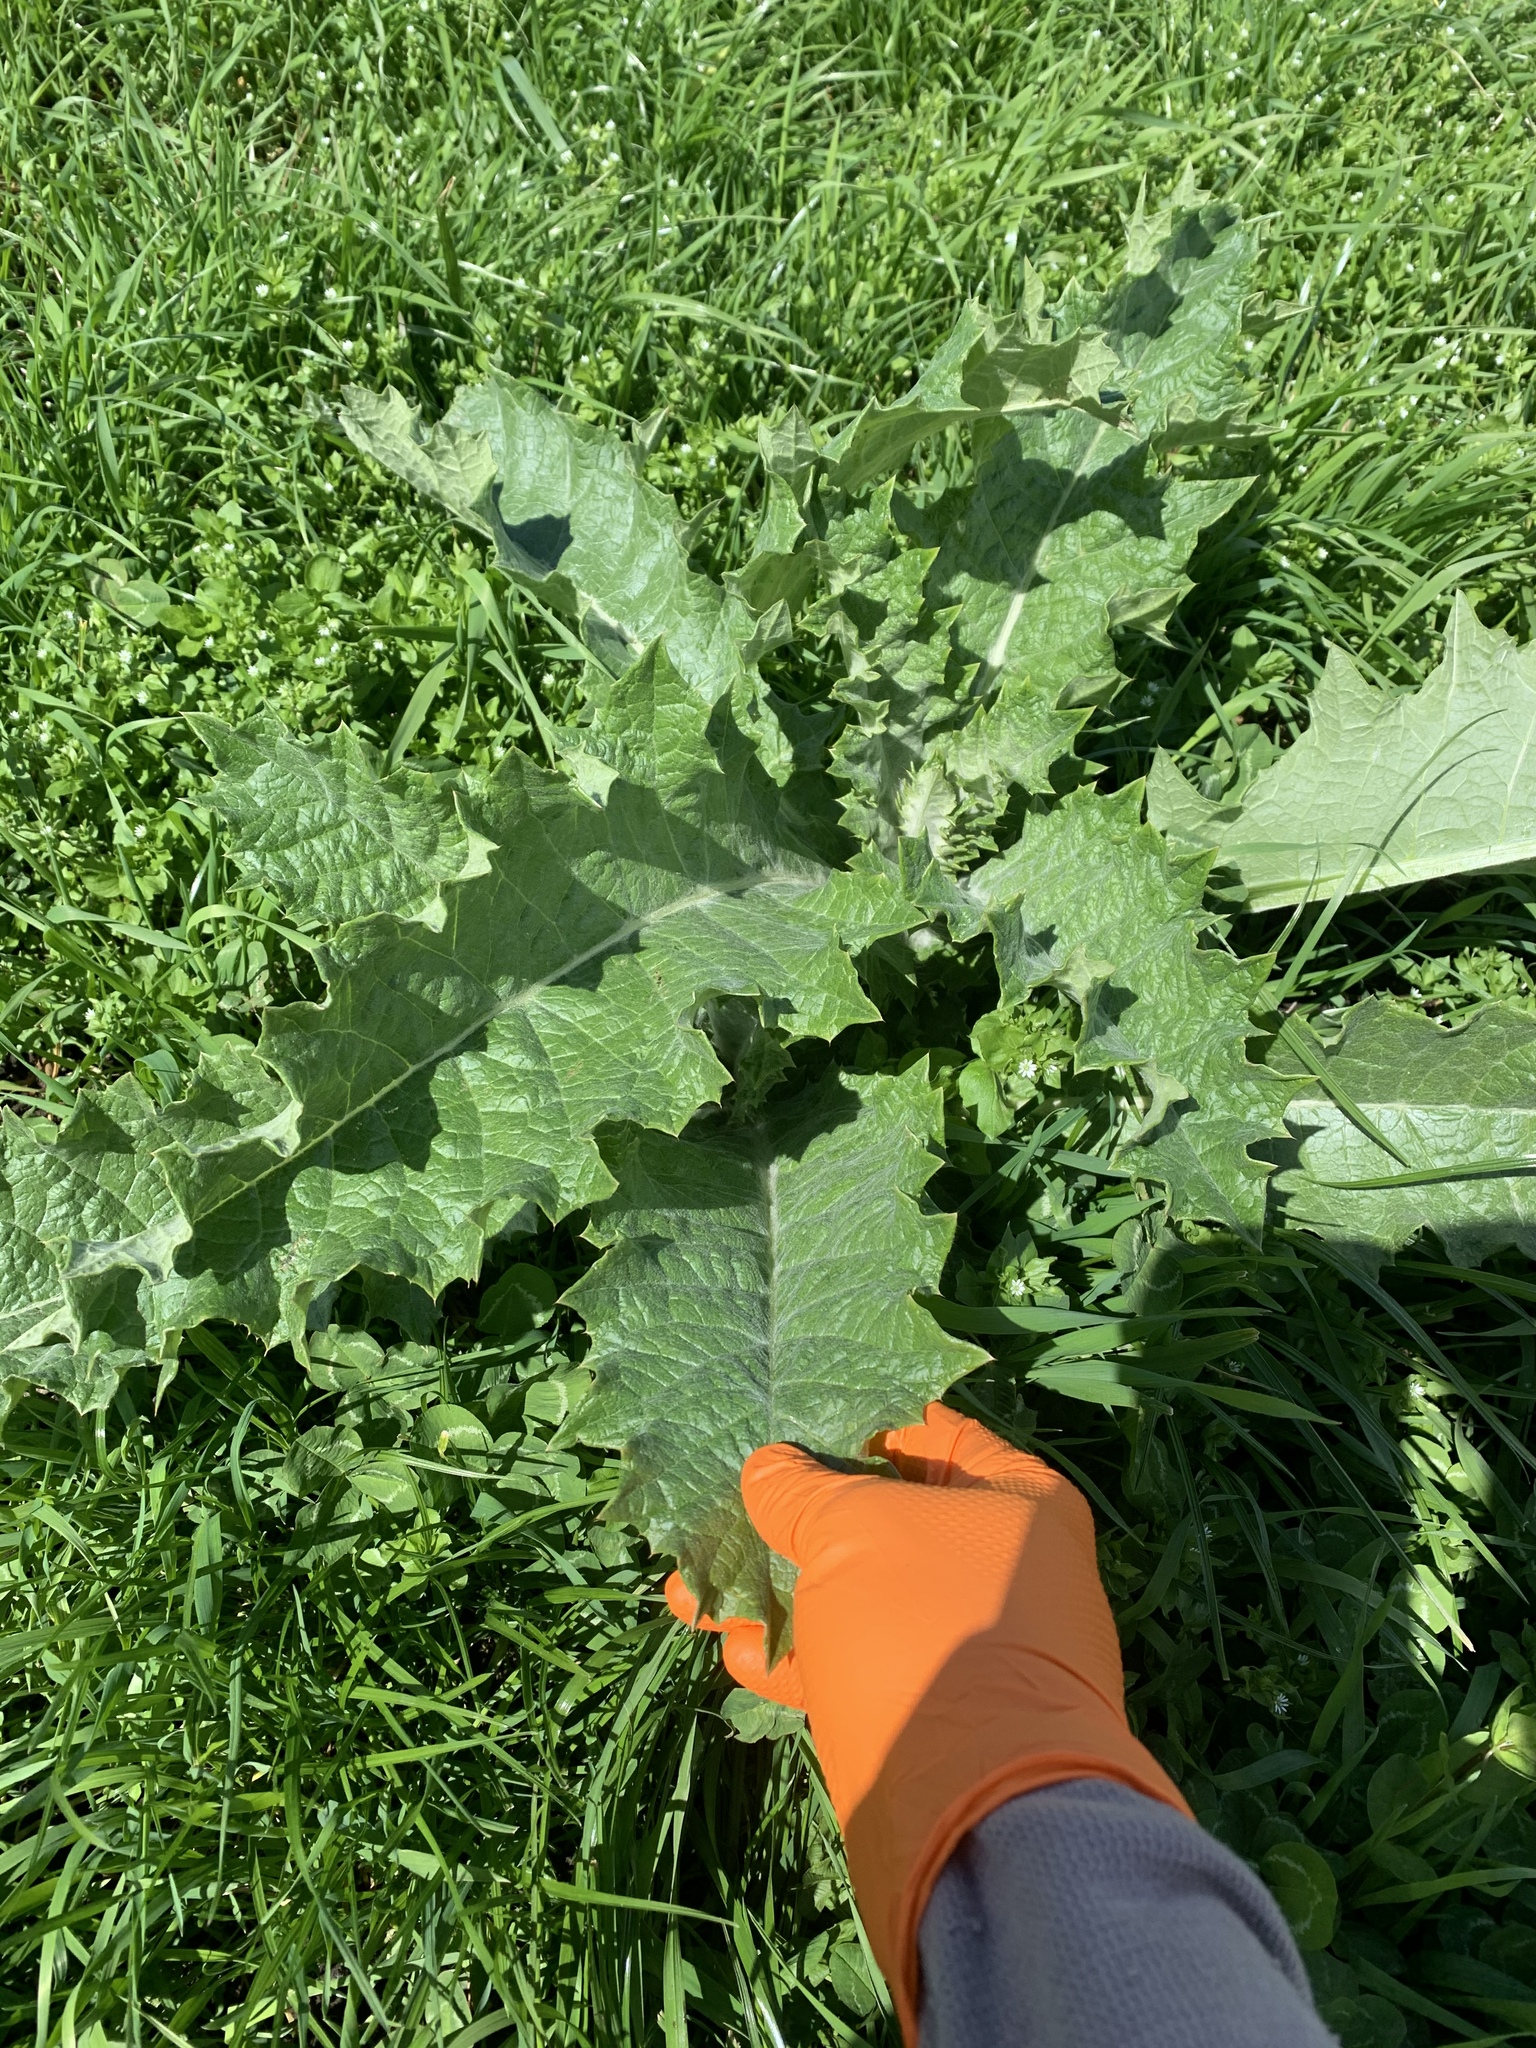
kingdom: Plantae
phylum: Tracheophyta
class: Magnoliopsida
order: Asterales
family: Asteraceae
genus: Onopordum
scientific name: Onopordum acanthium
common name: Scotch thistle
